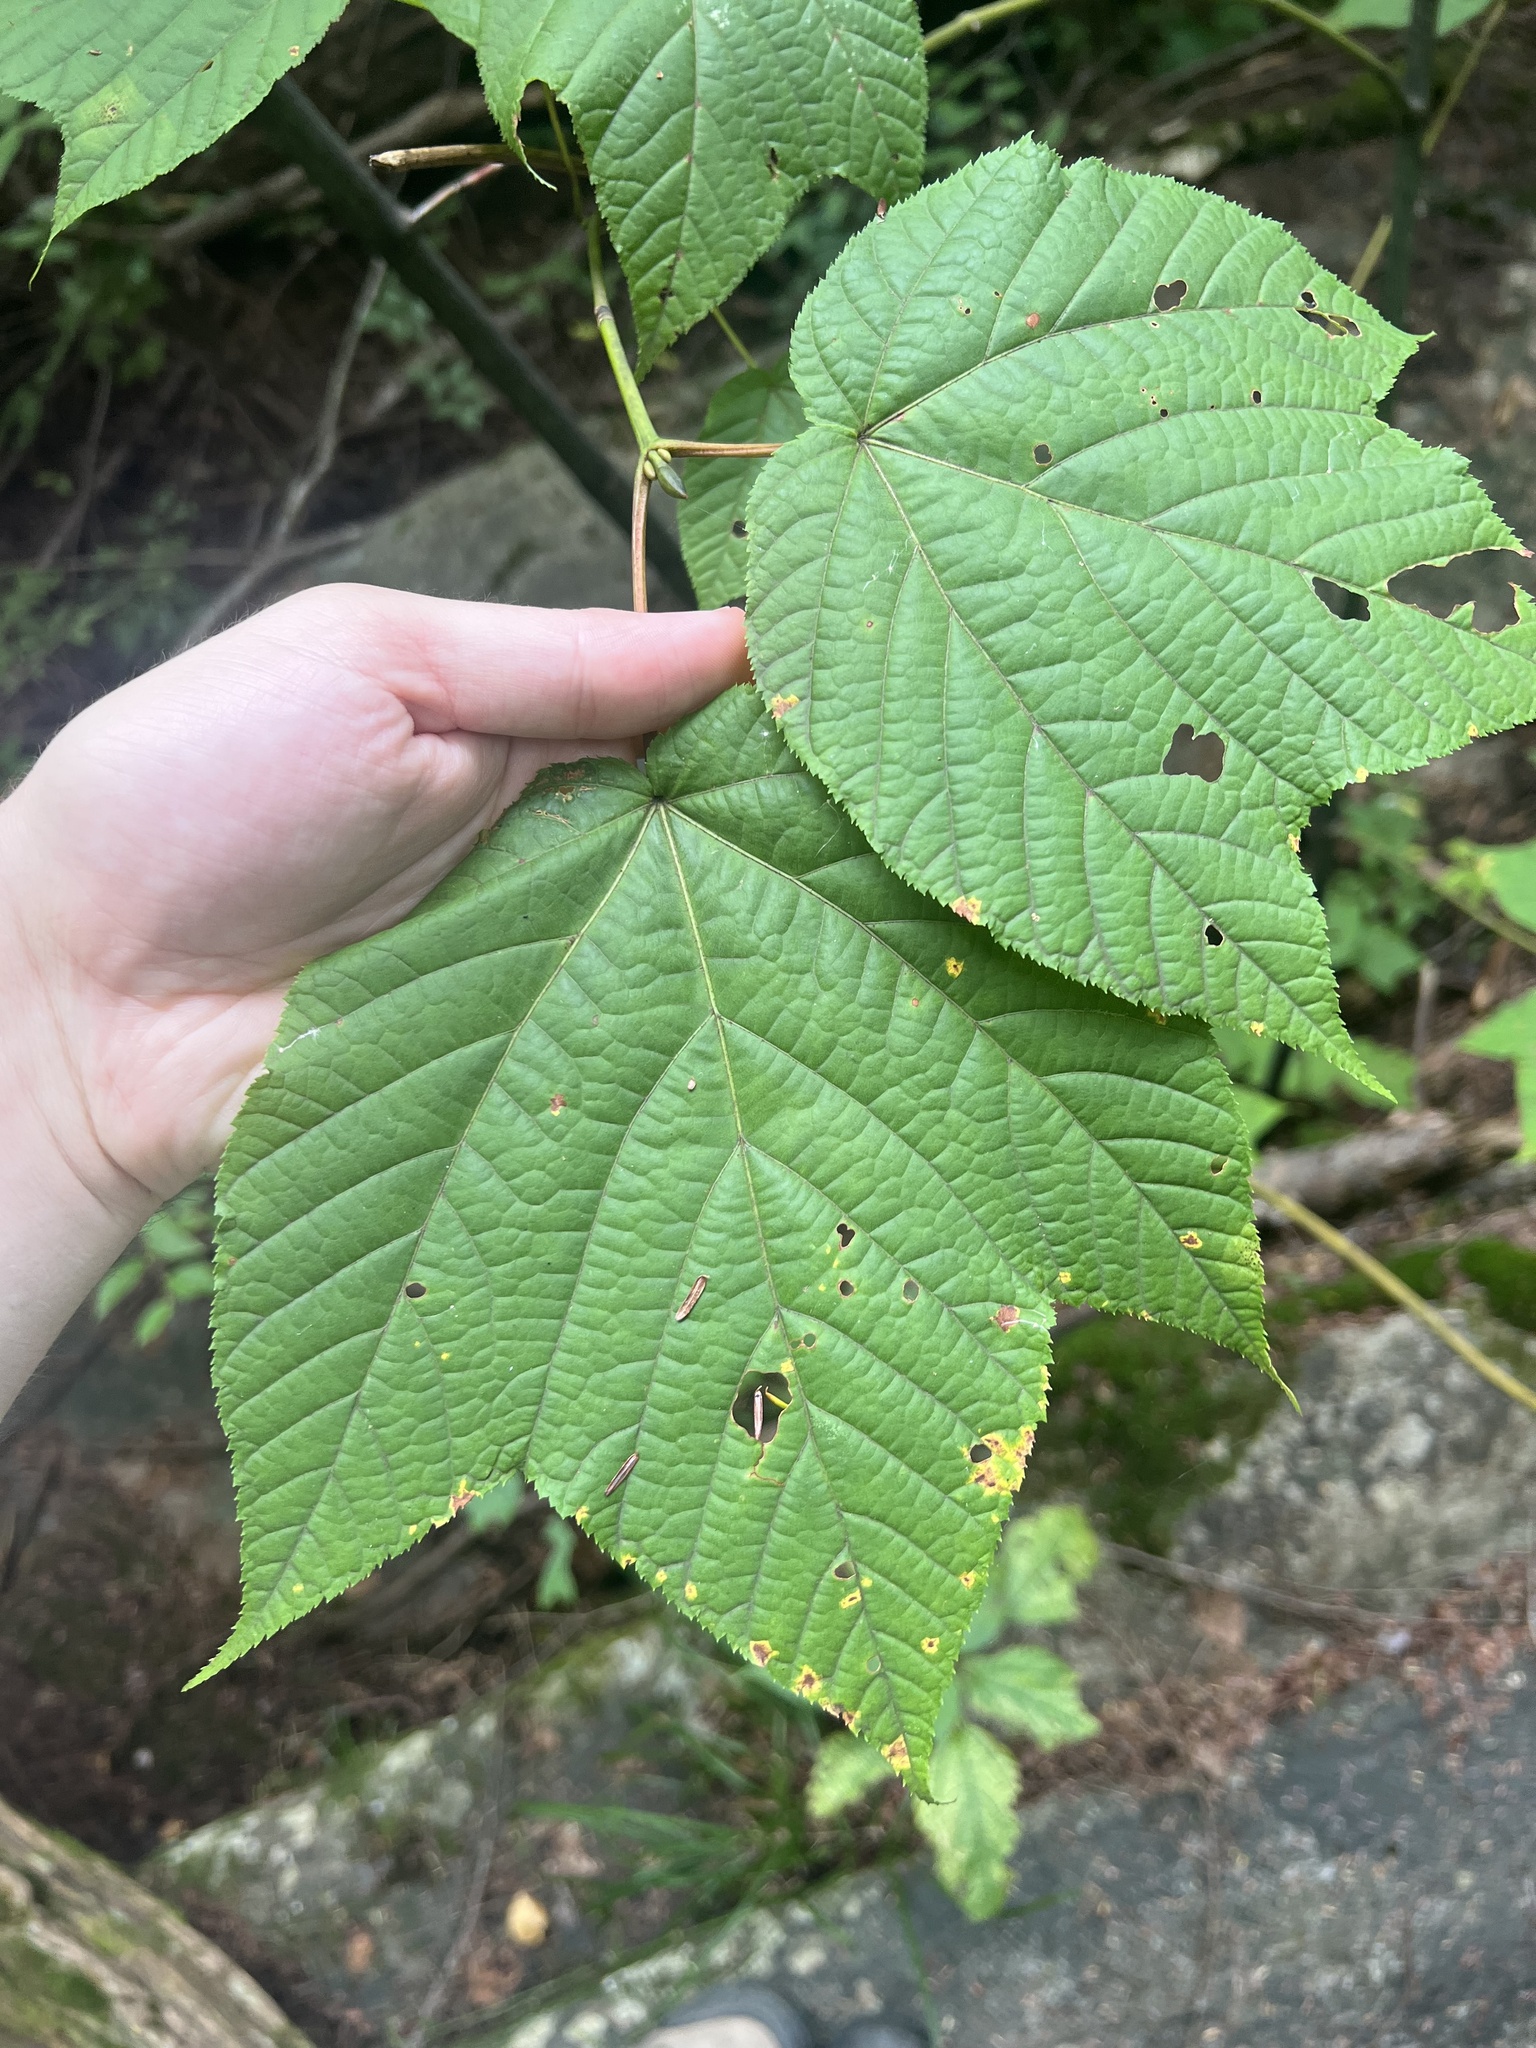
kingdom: Plantae
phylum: Tracheophyta
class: Magnoliopsida
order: Sapindales
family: Sapindaceae
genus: Acer
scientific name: Acer pensylvanicum
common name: Moosewood
